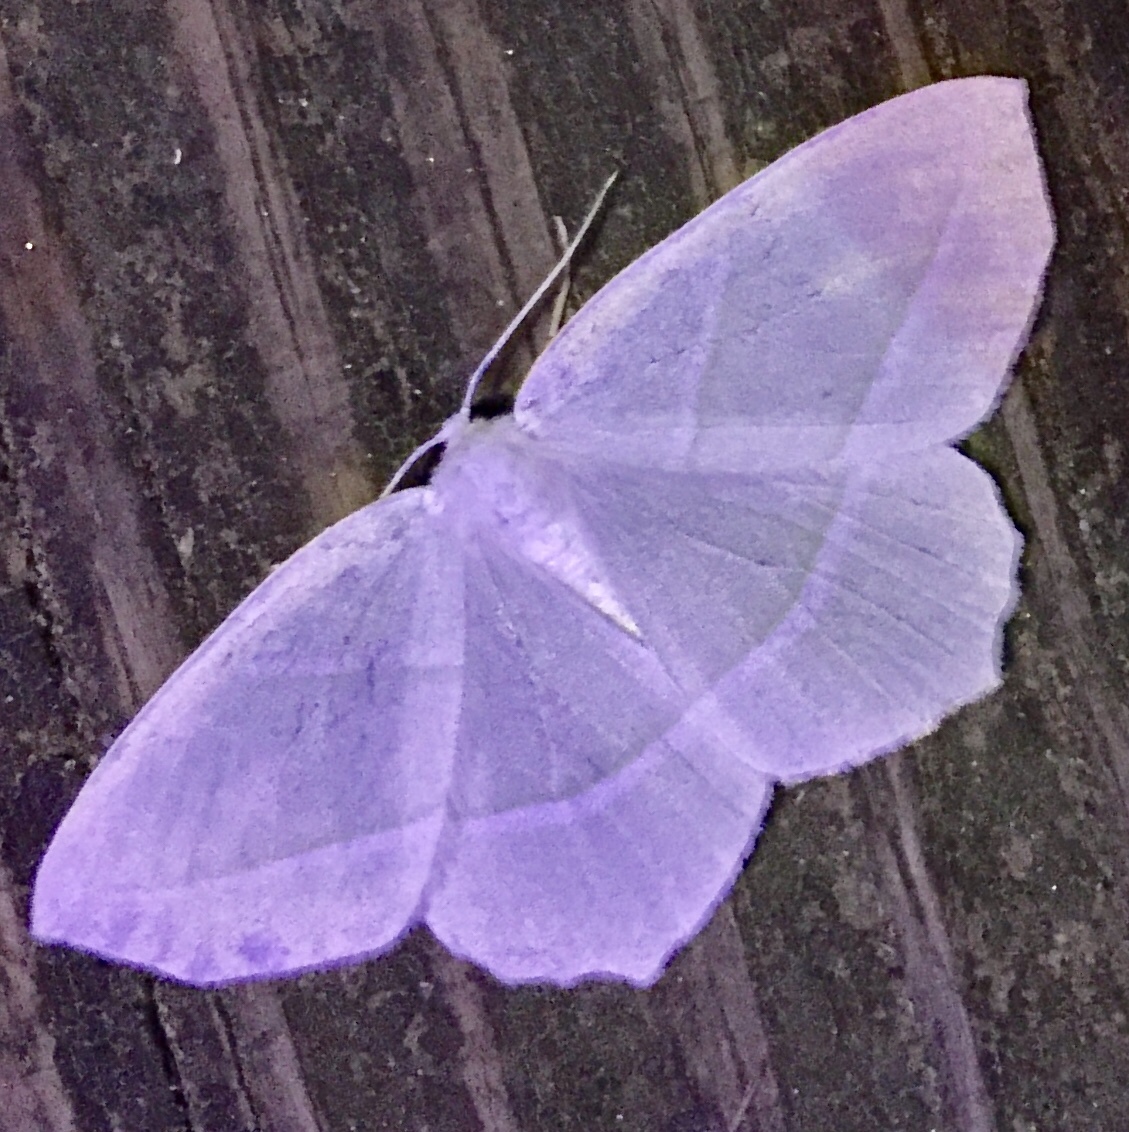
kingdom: Animalia
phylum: Arthropoda
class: Insecta
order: Lepidoptera
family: Geometridae
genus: Campaea
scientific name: Campaea perlata
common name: Fringed looper
